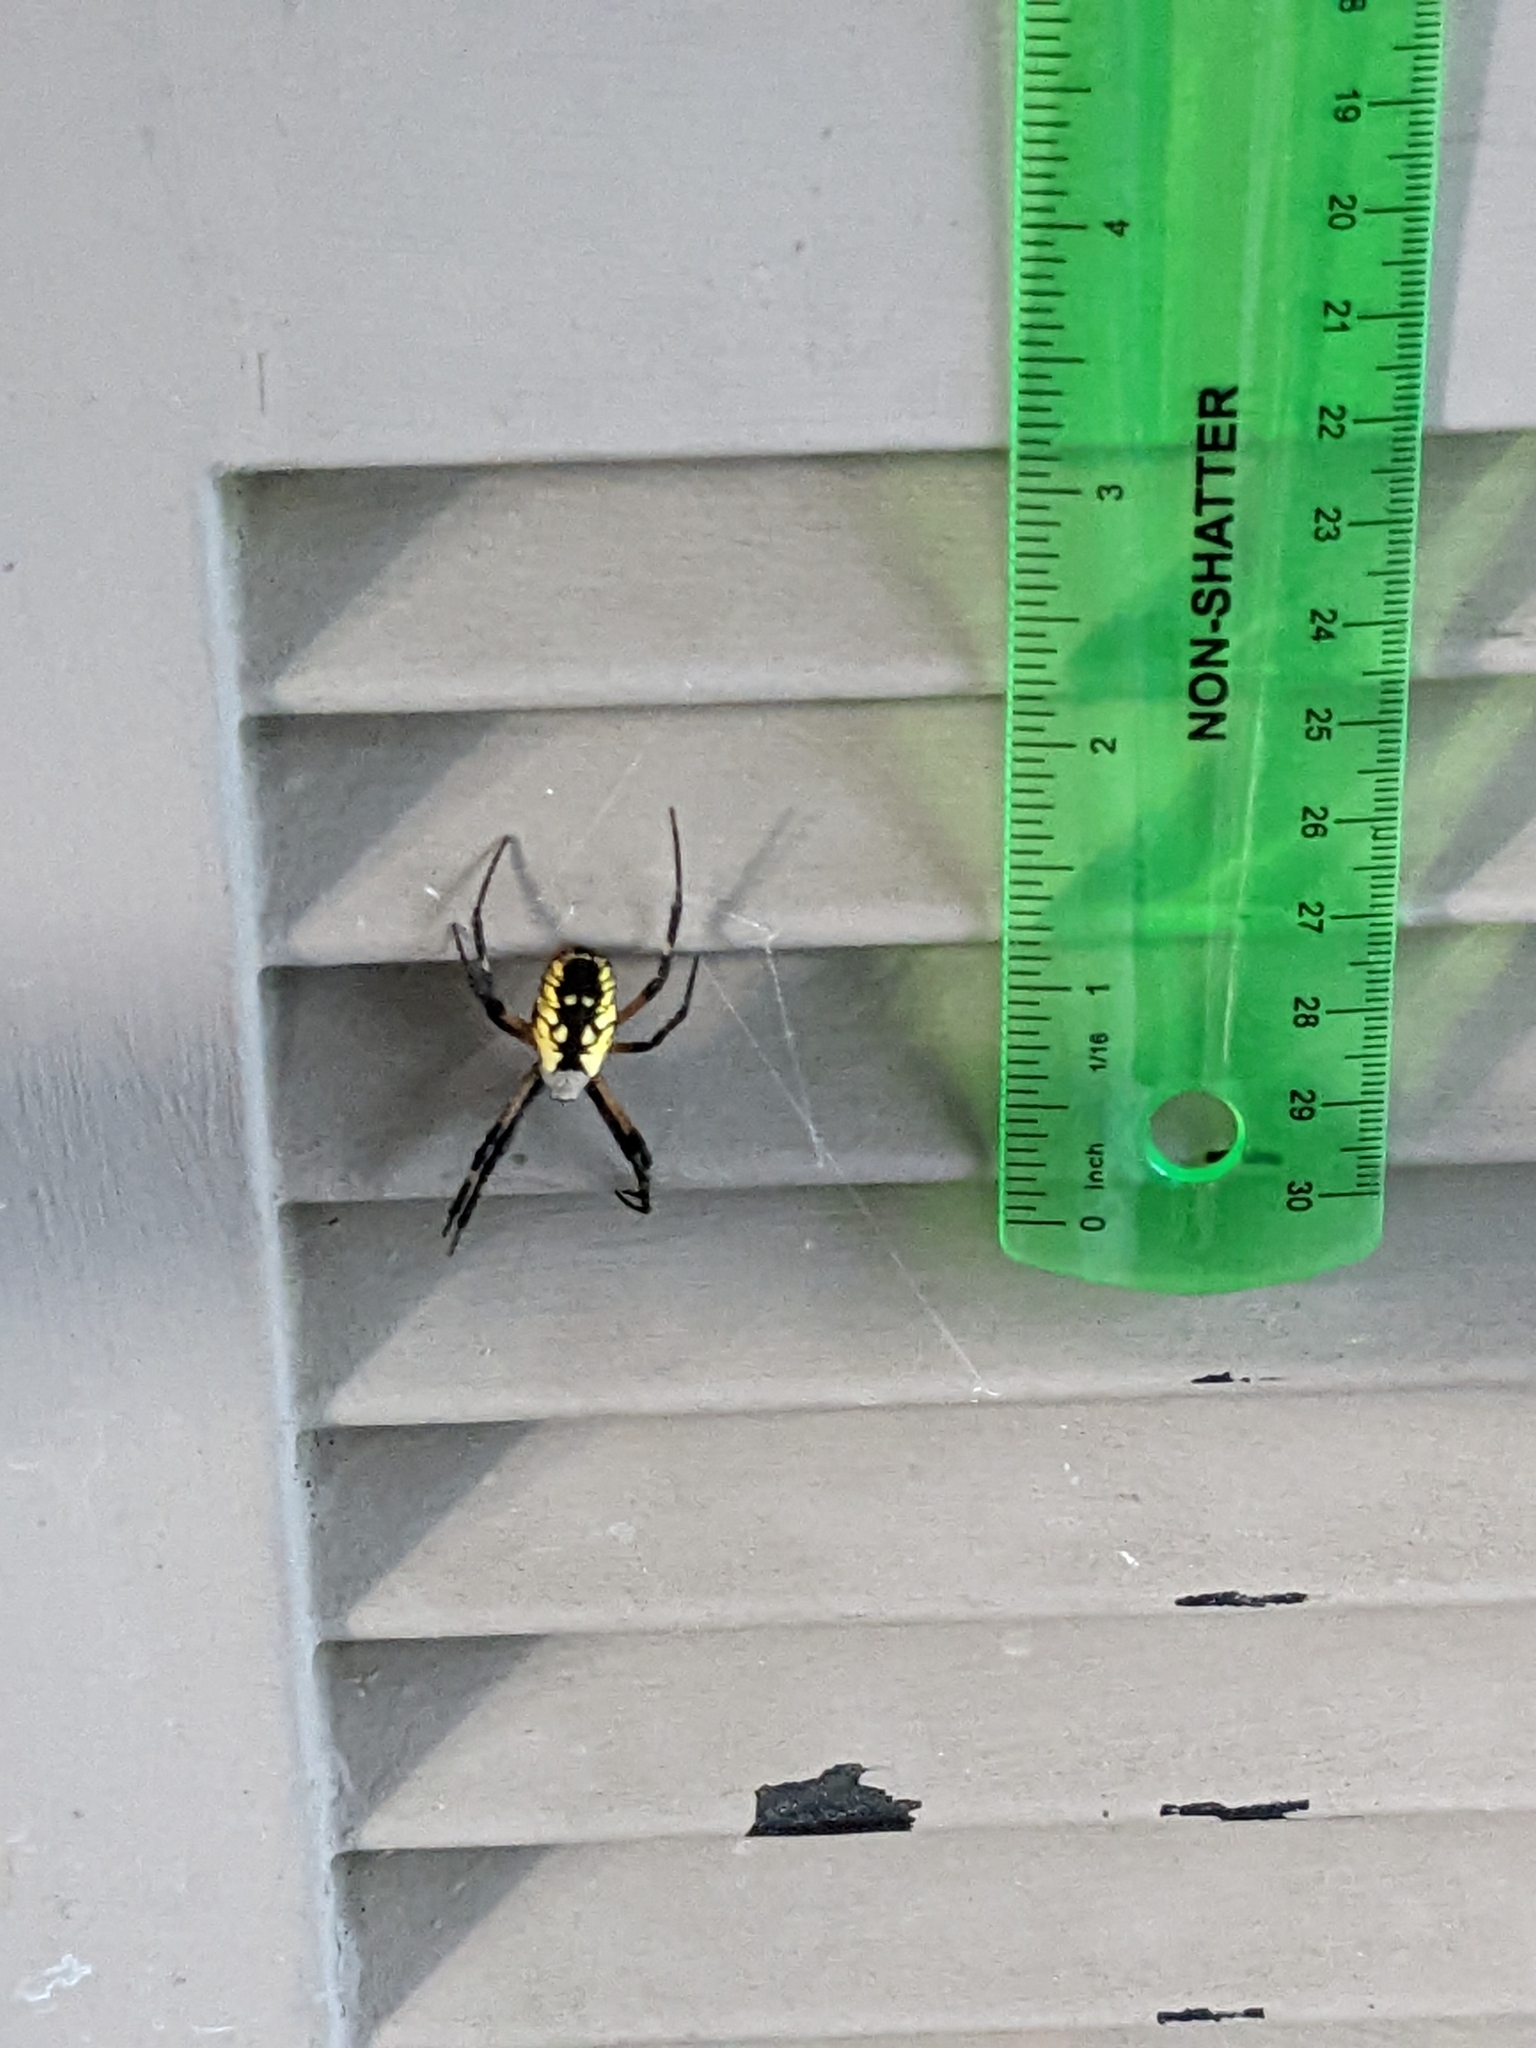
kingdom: Animalia
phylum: Arthropoda
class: Arachnida
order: Araneae
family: Araneidae
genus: Argiope
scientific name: Argiope aurantia
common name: Orb weavers
